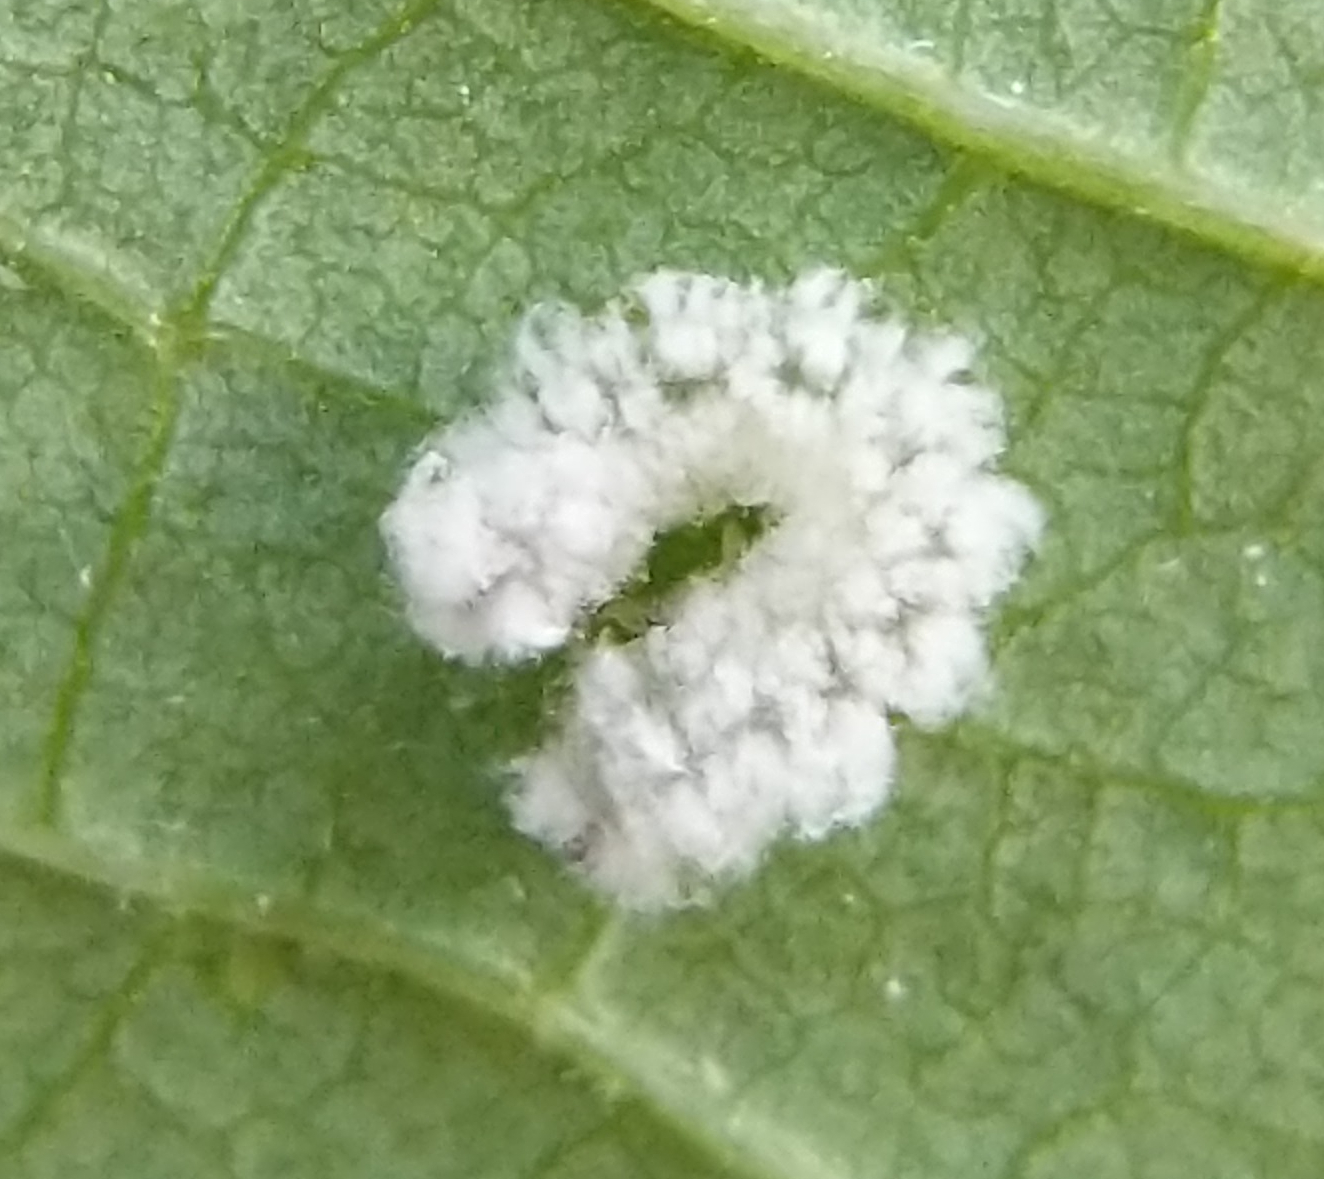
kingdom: Animalia
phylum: Arthropoda
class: Insecta
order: Hymenoptera
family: Tenthredinidae
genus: Eriocampa
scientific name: Eriocampa ovata
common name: Alder wooly sawfly
